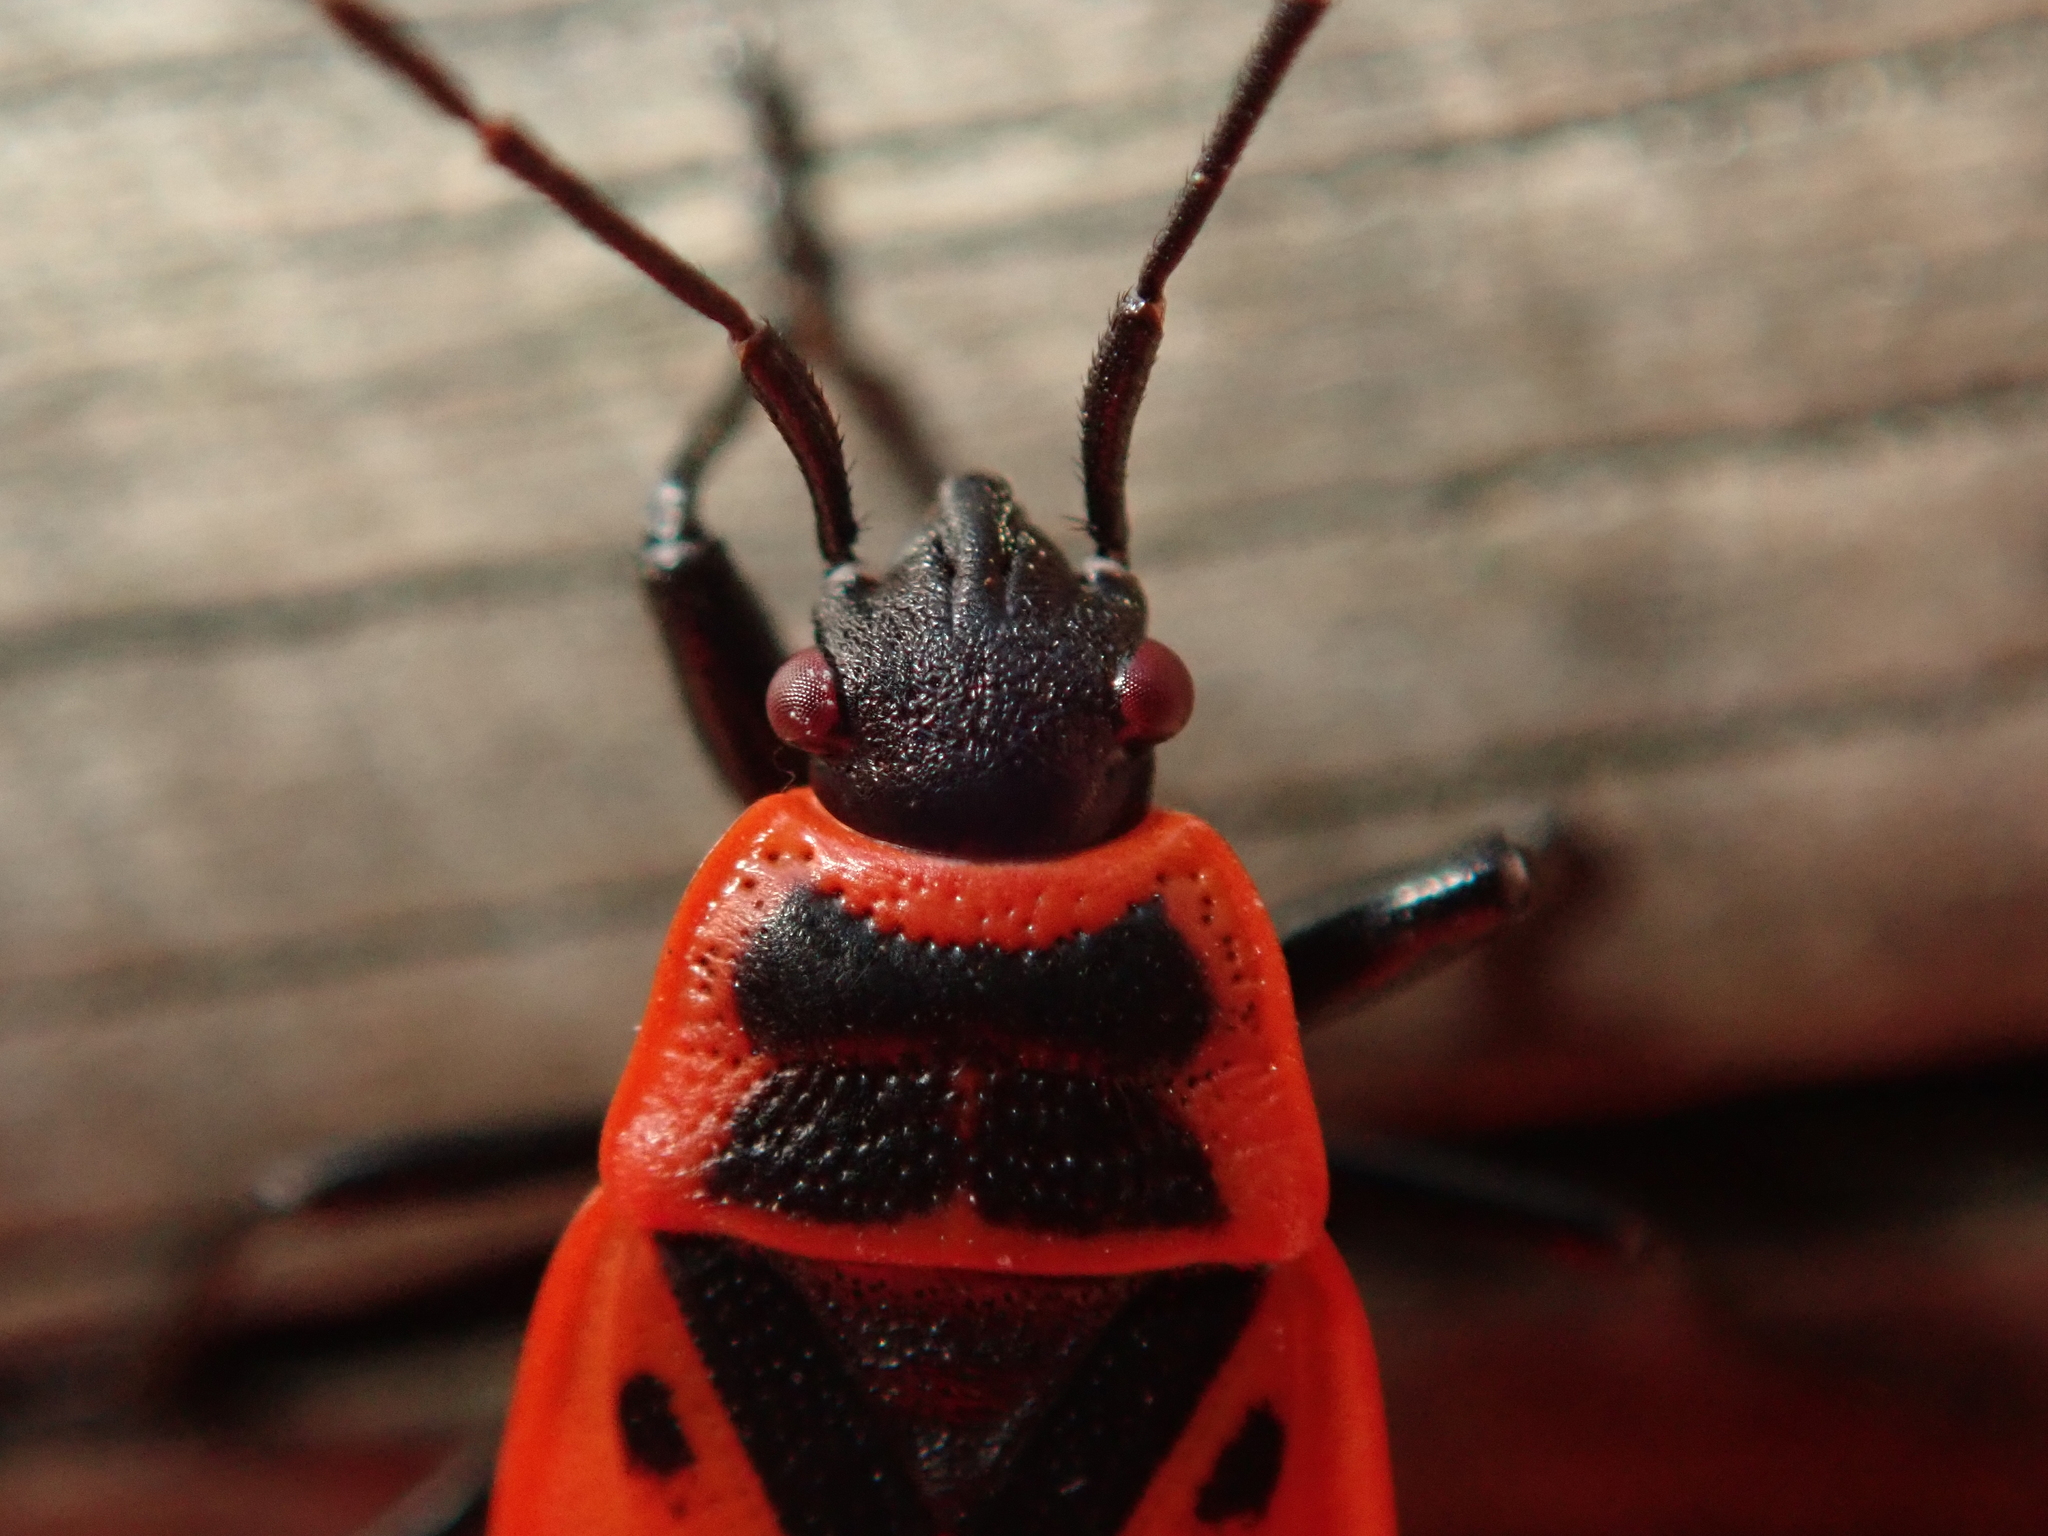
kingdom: Animalia
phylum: Arthropoda
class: Insecta
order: Hemiptera
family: Pyrrhocoridae
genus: Pyrrhocoris
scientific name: Pyrrhocoris apterus
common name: Firebug
